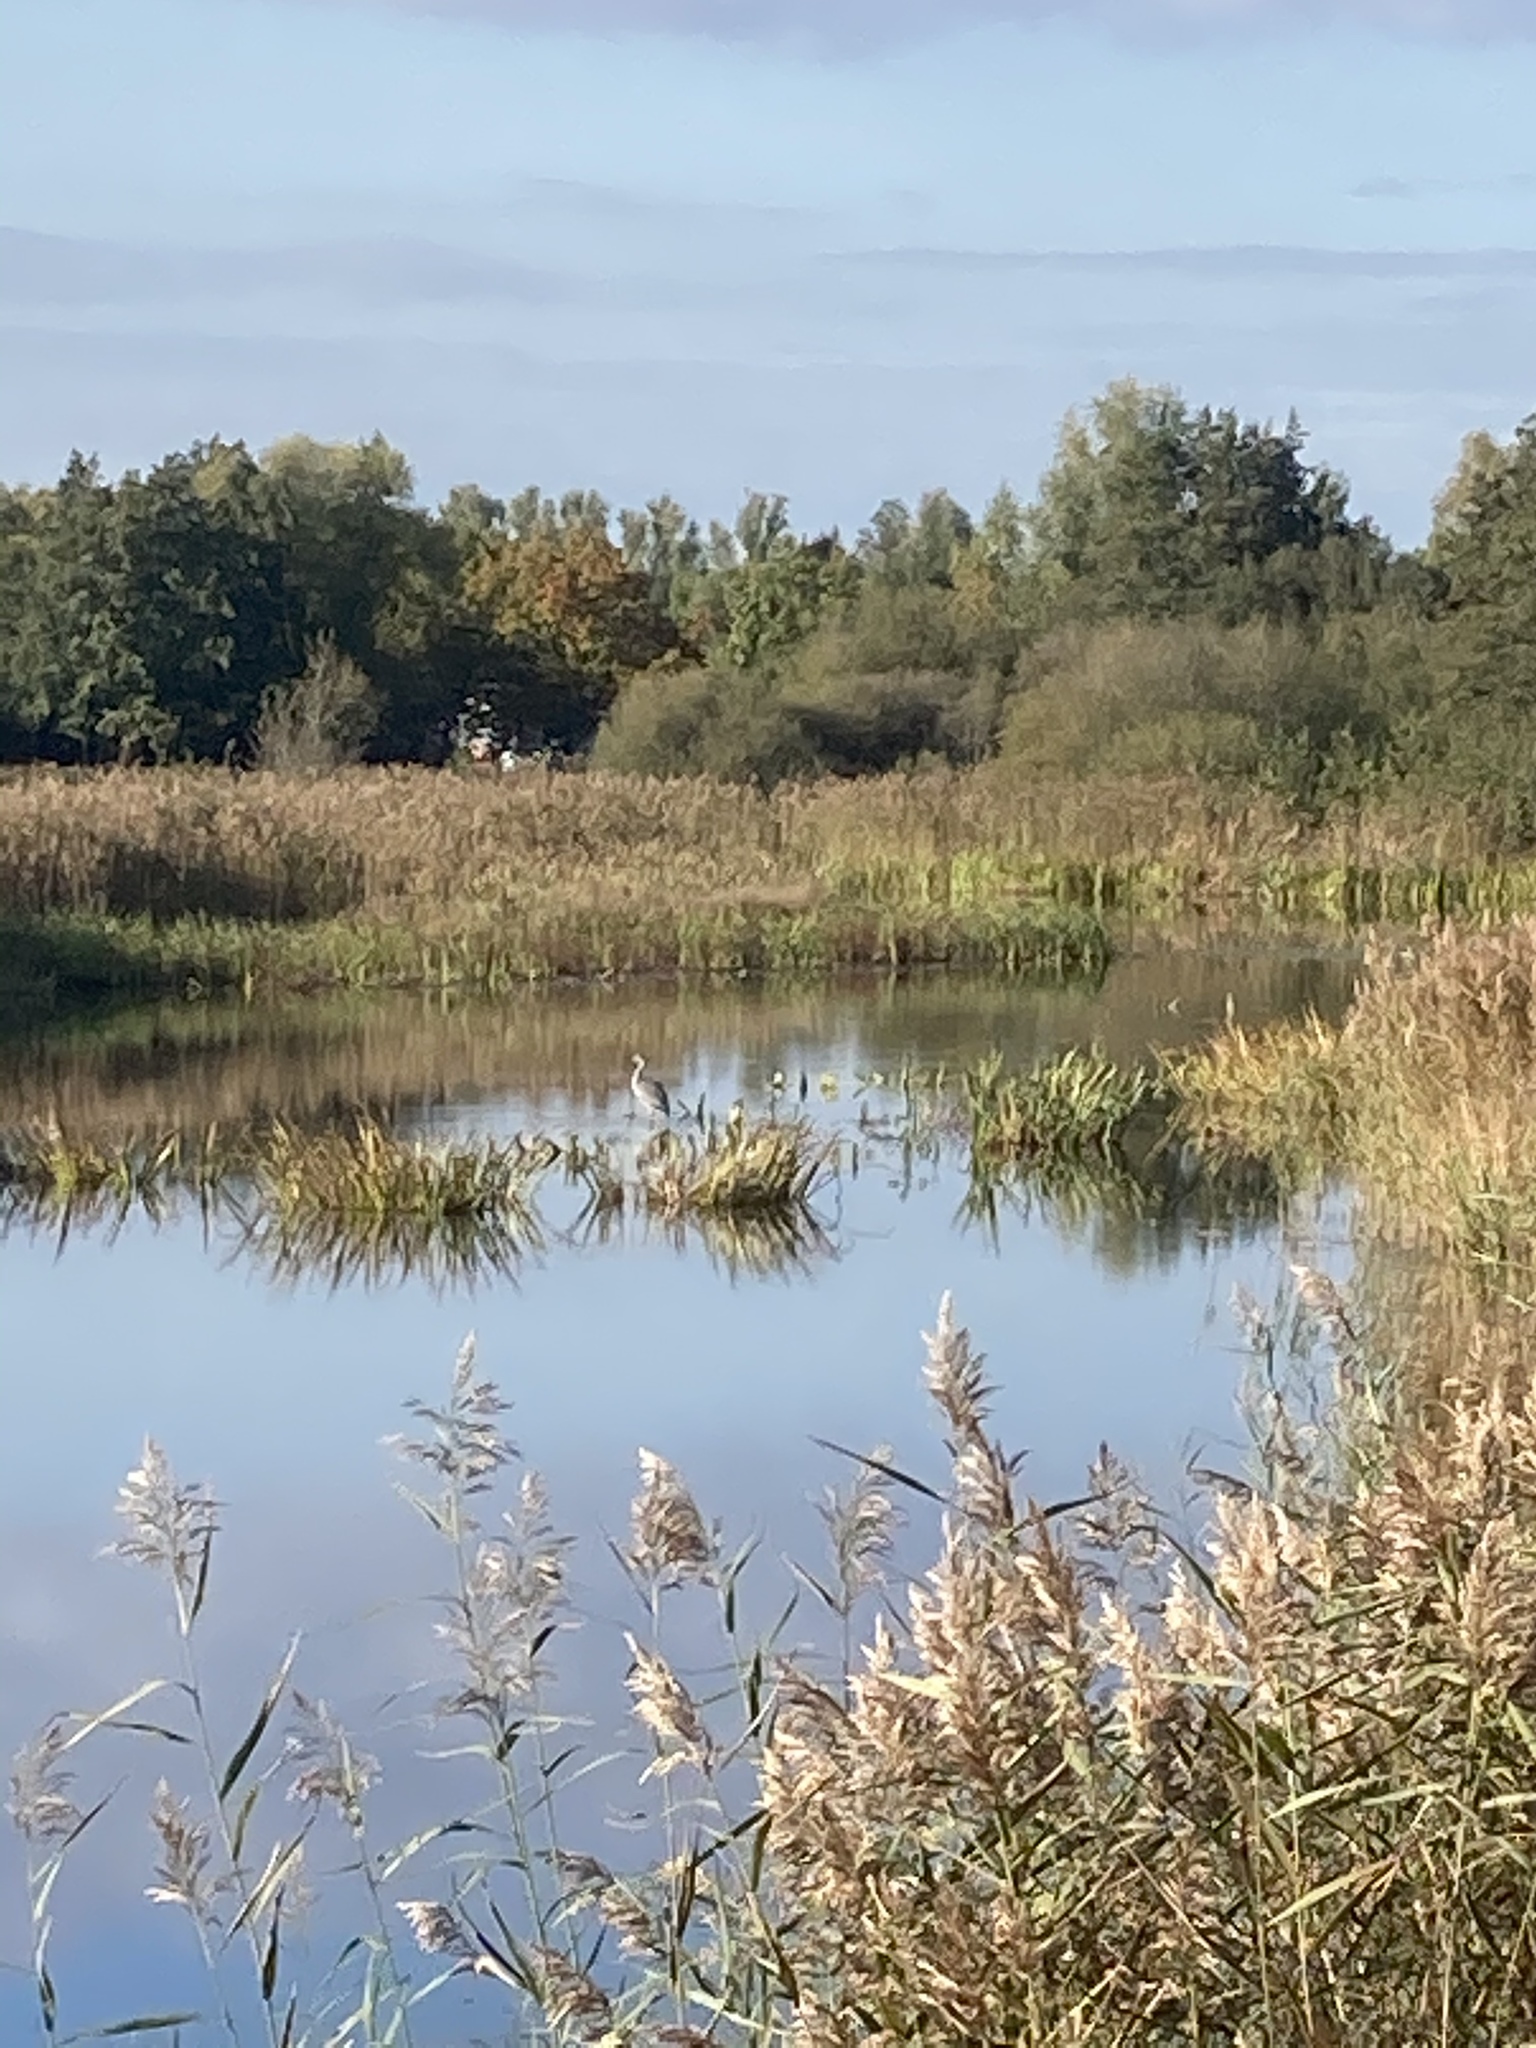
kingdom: Animalia
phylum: Chordata
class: Aves
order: Pelecaniformes
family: Ardeidae
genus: Ardea
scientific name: Ardea cinerea
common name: Grey heron
